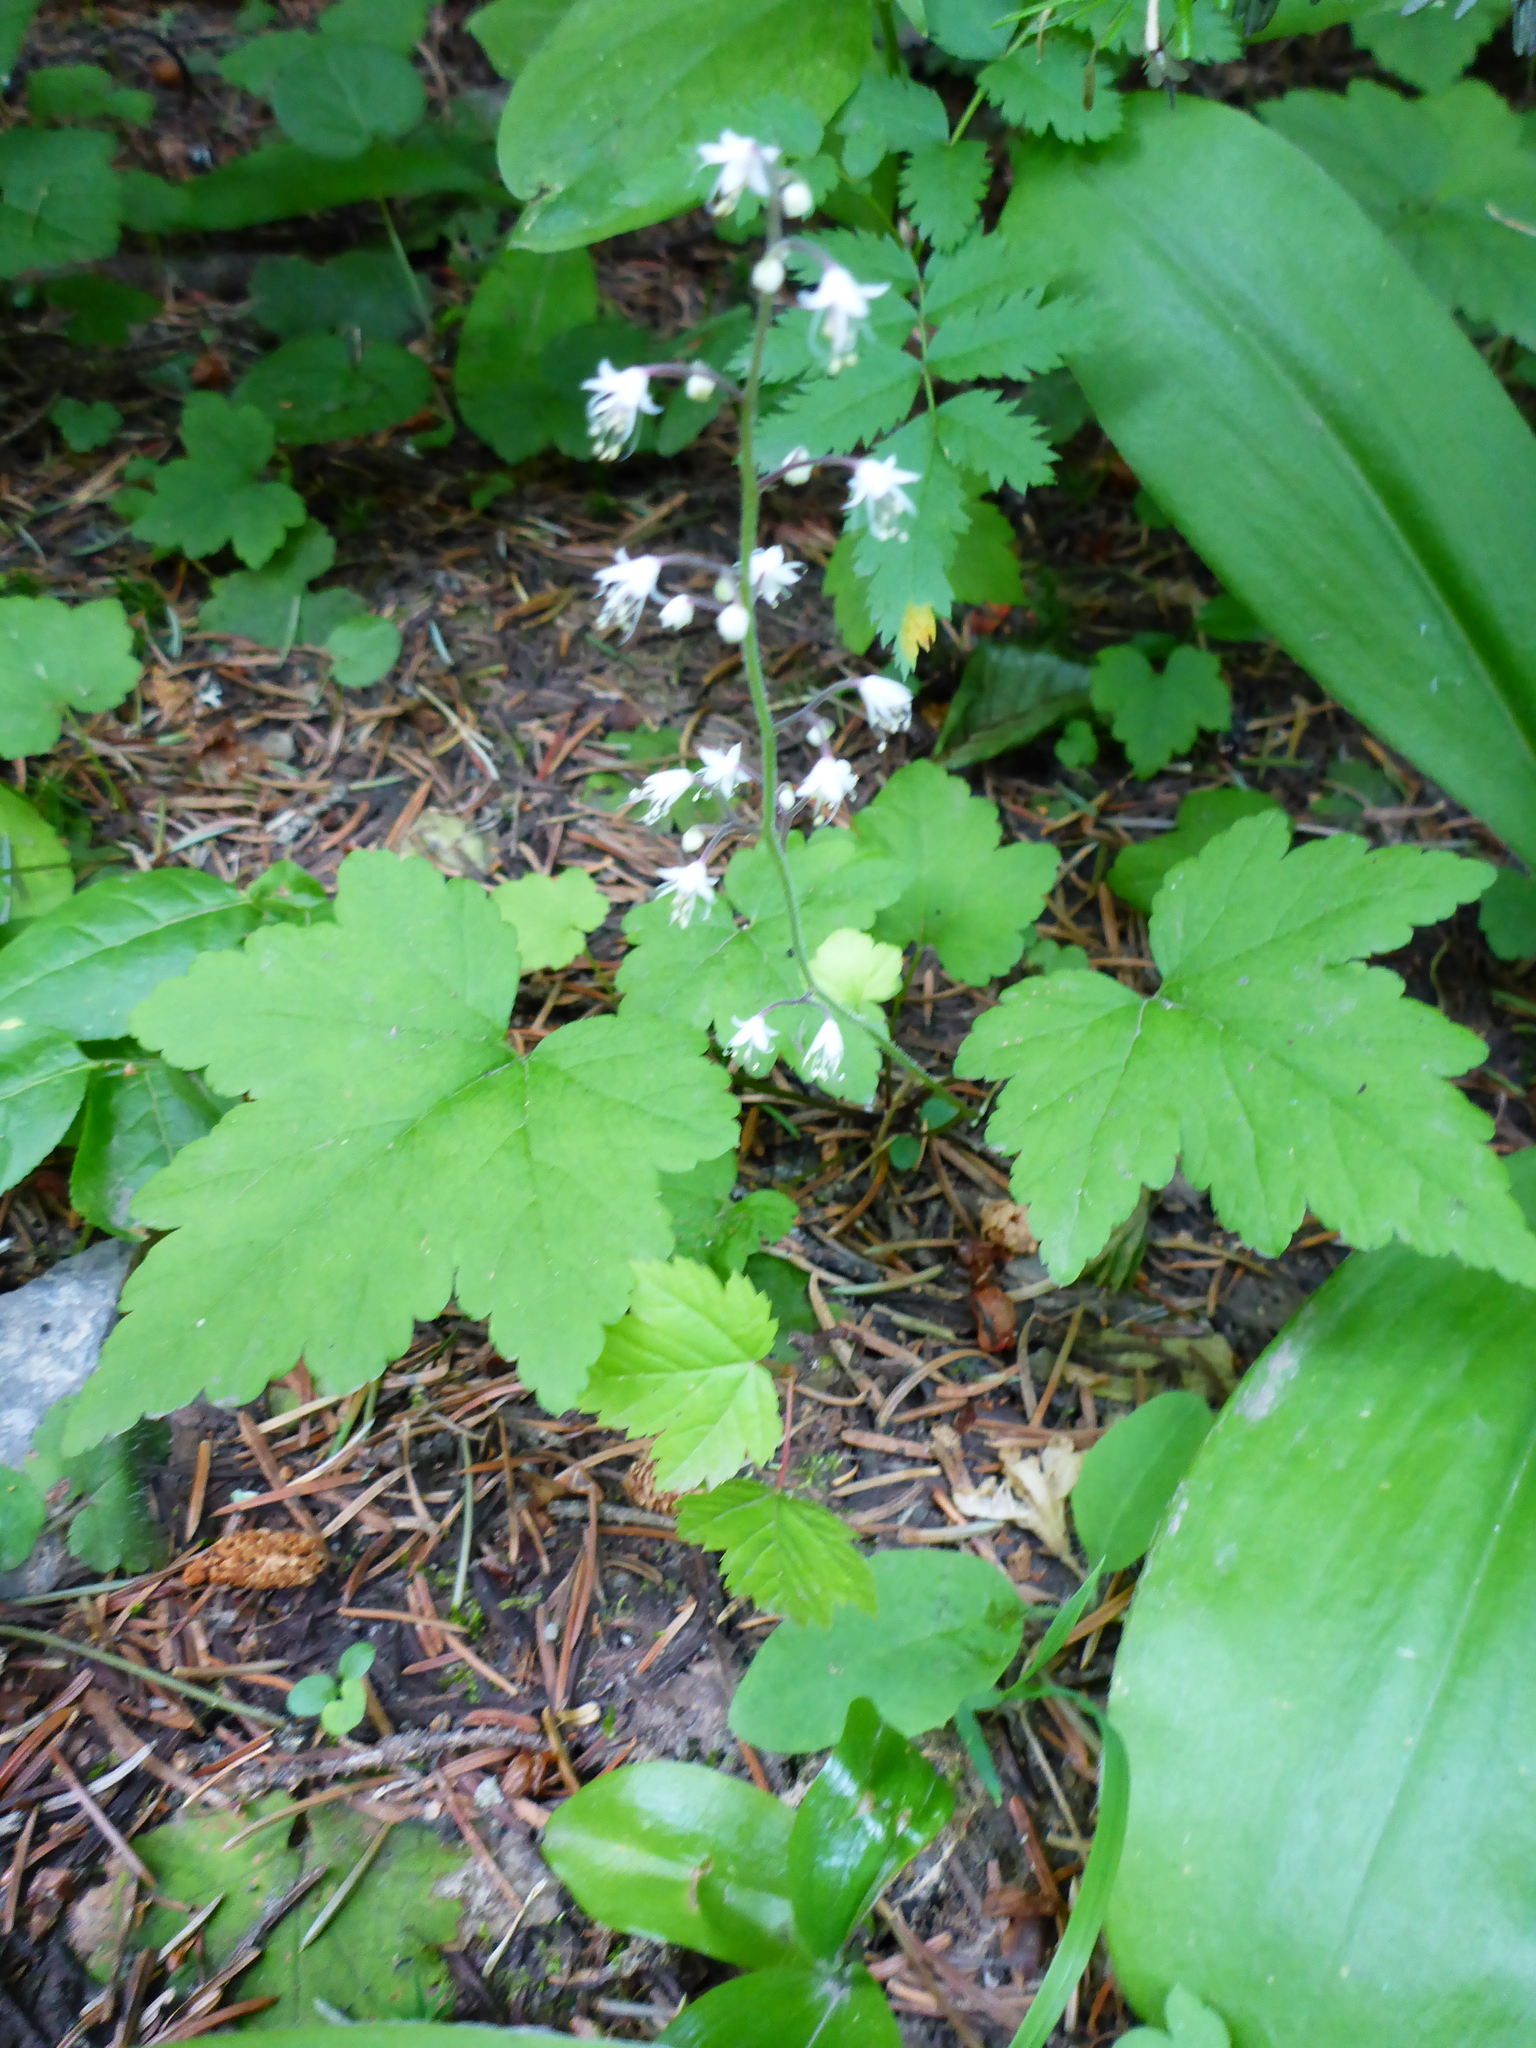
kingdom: Plantae
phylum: Tracheophyta
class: Magnoliopsida
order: Saxifragales
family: Saxifragaceae
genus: Tiarella
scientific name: Tiarella trifoliata
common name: Sugar-scoop
